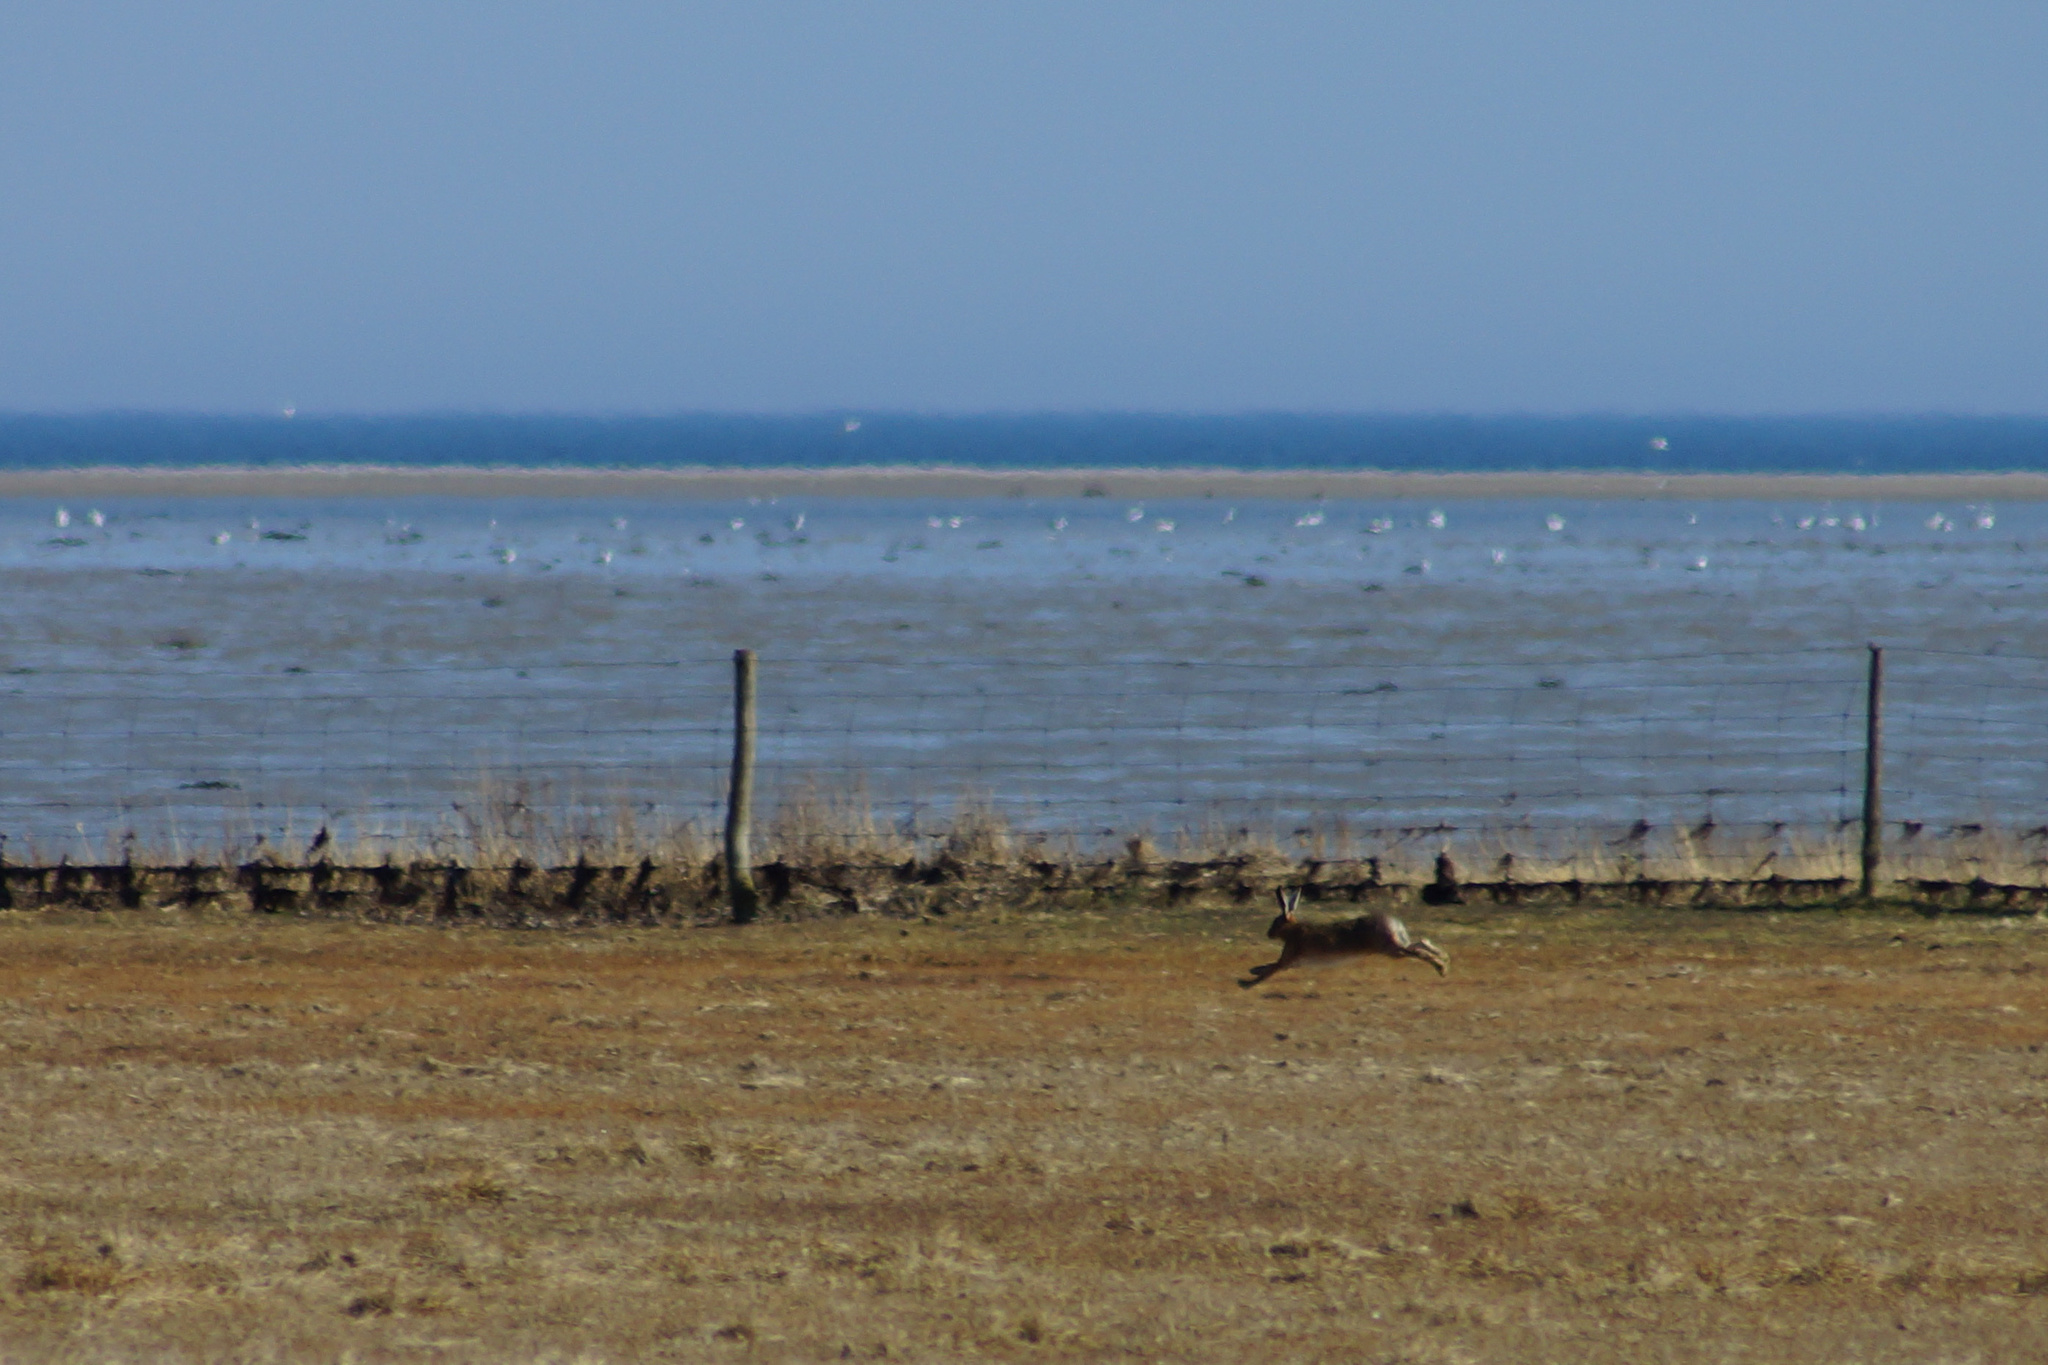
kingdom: Animalia
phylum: Chordata
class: Mammalia
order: Lagomorpha
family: Leporidae
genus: Lepus
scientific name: Lepus europaeus
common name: European hare
